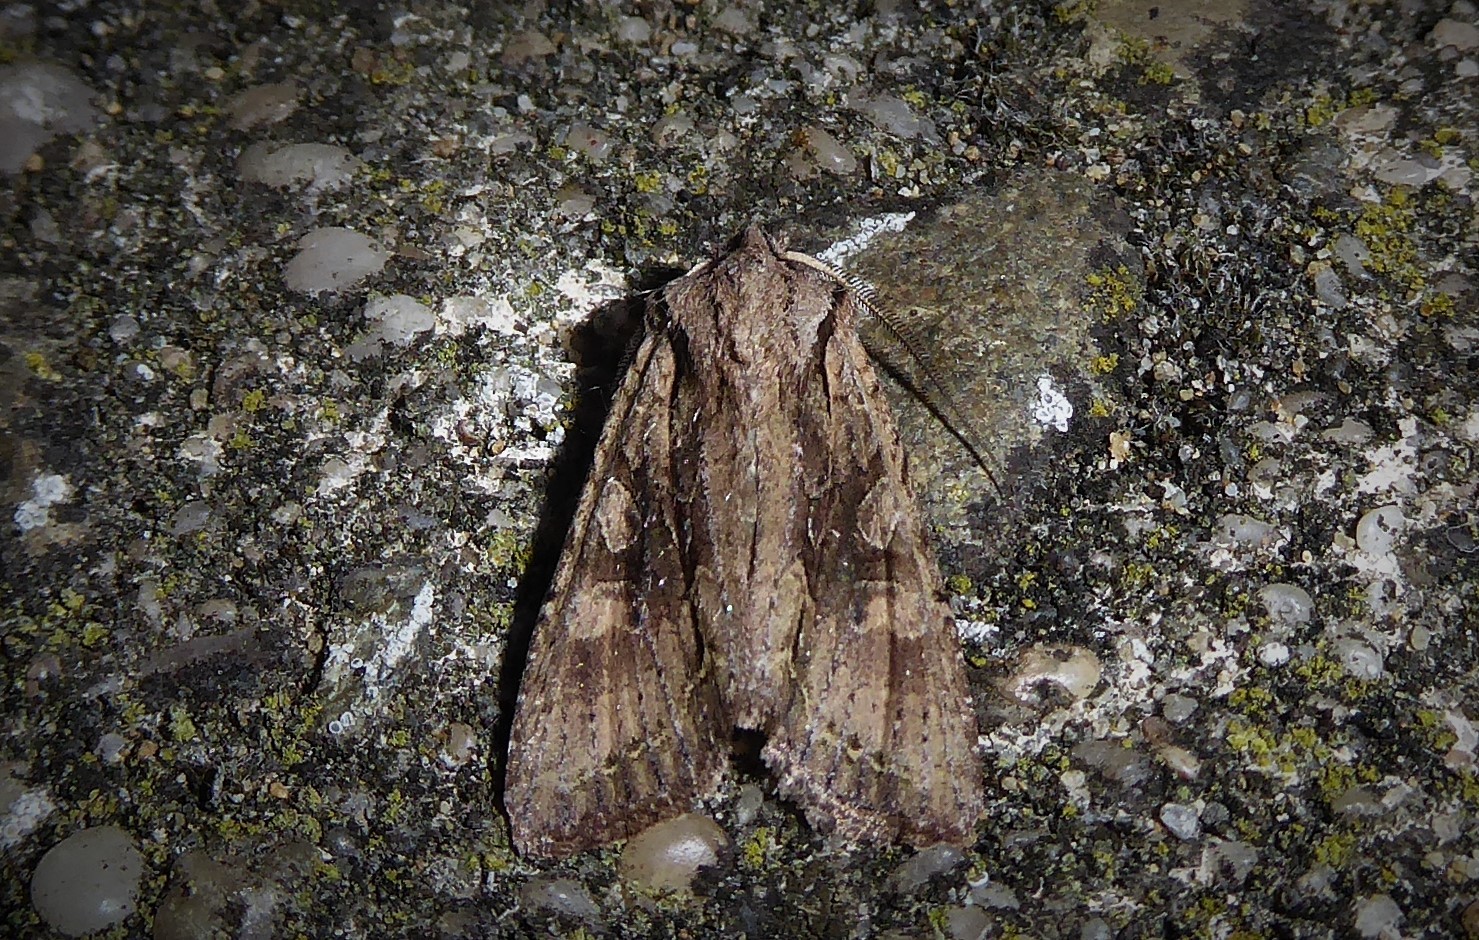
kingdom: Animalia
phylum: Arthropoda
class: Insecta
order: Lepidoptera
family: Noctuidae
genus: Ichneutica
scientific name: Ichneutica mutans
